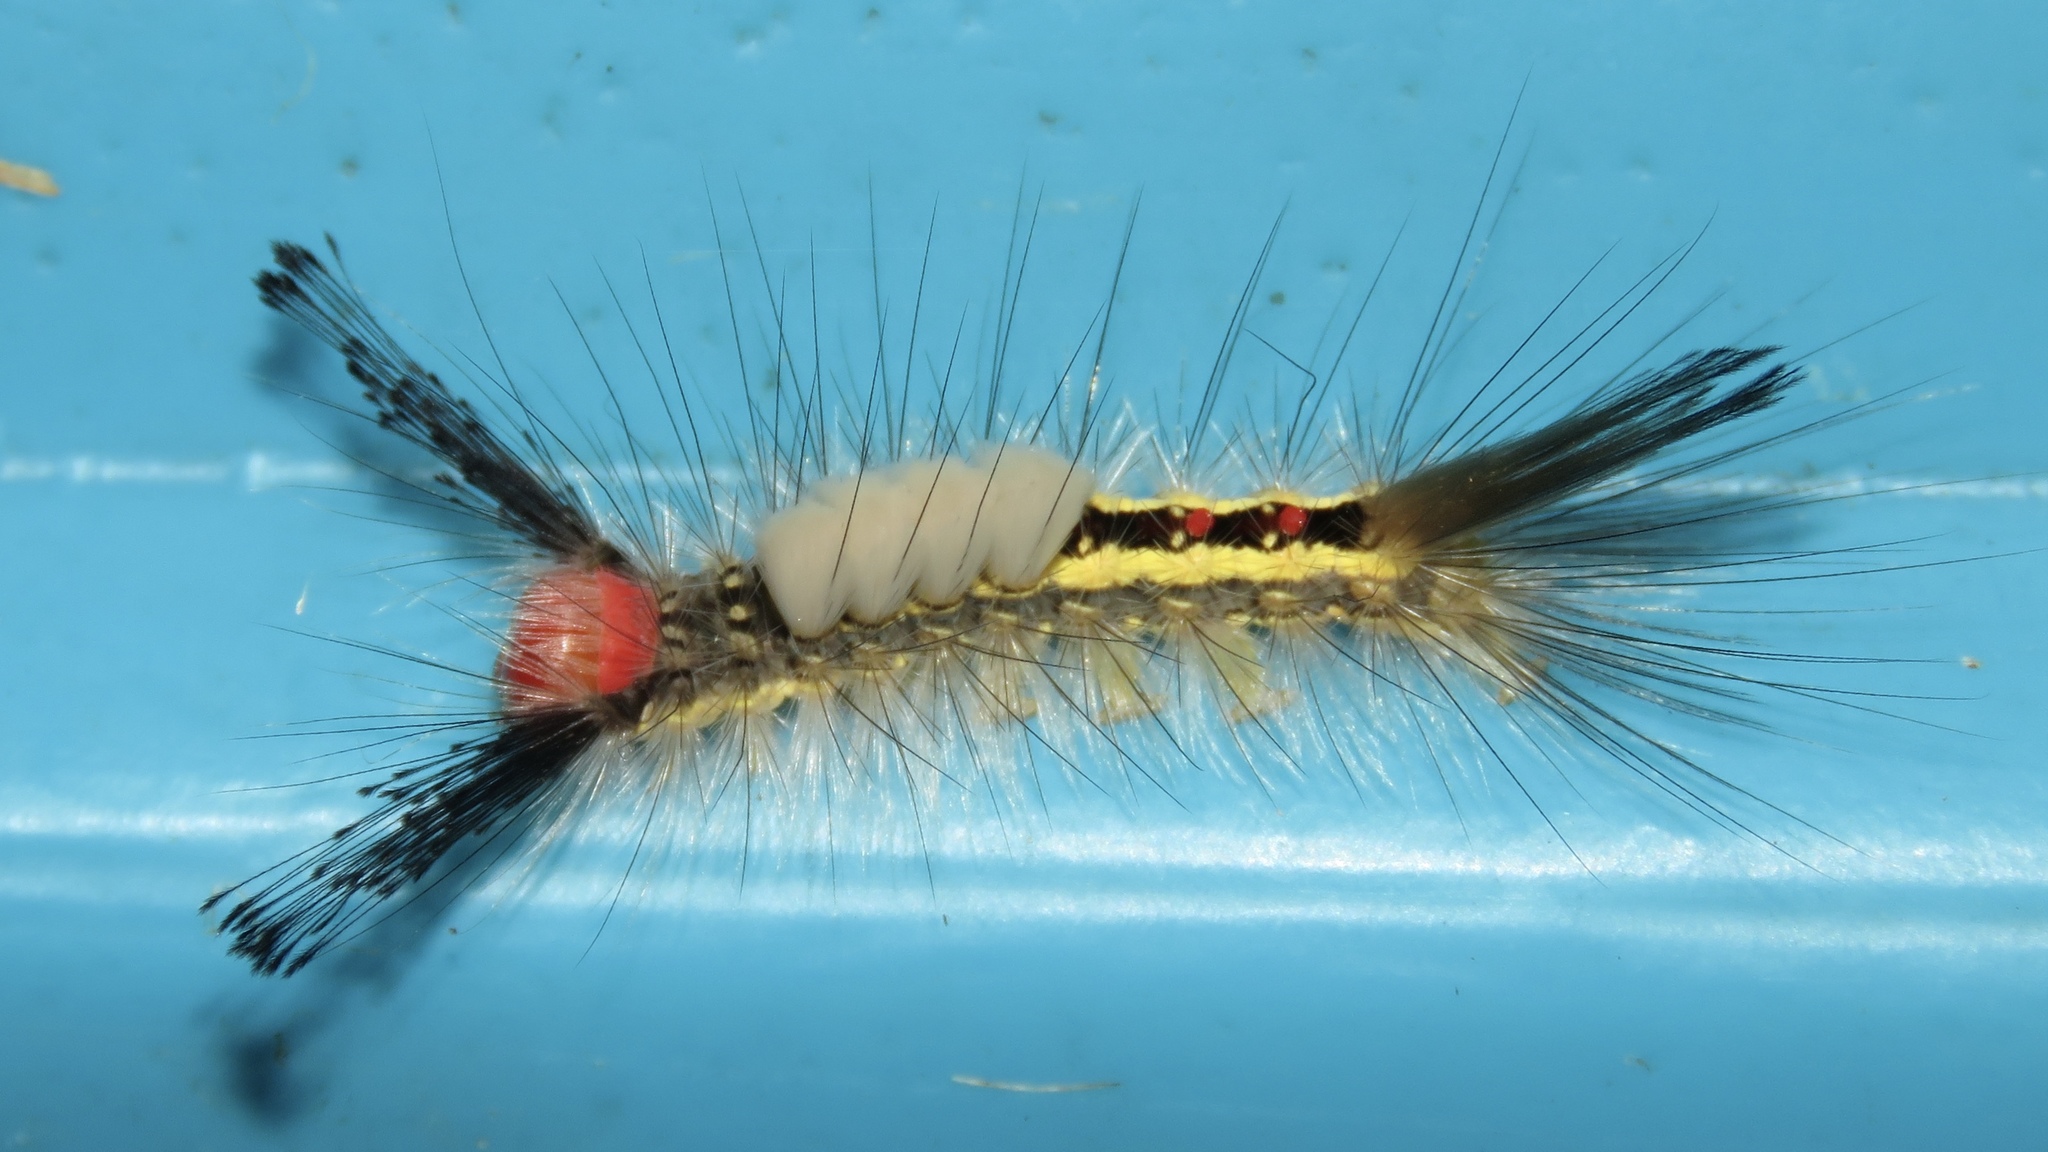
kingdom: Animalia
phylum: Arthropoda
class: Insecta
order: Lepidoptera
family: Erebidae
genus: Orgyia
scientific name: Orgyia leucostigma
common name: White-marked tussock moth
